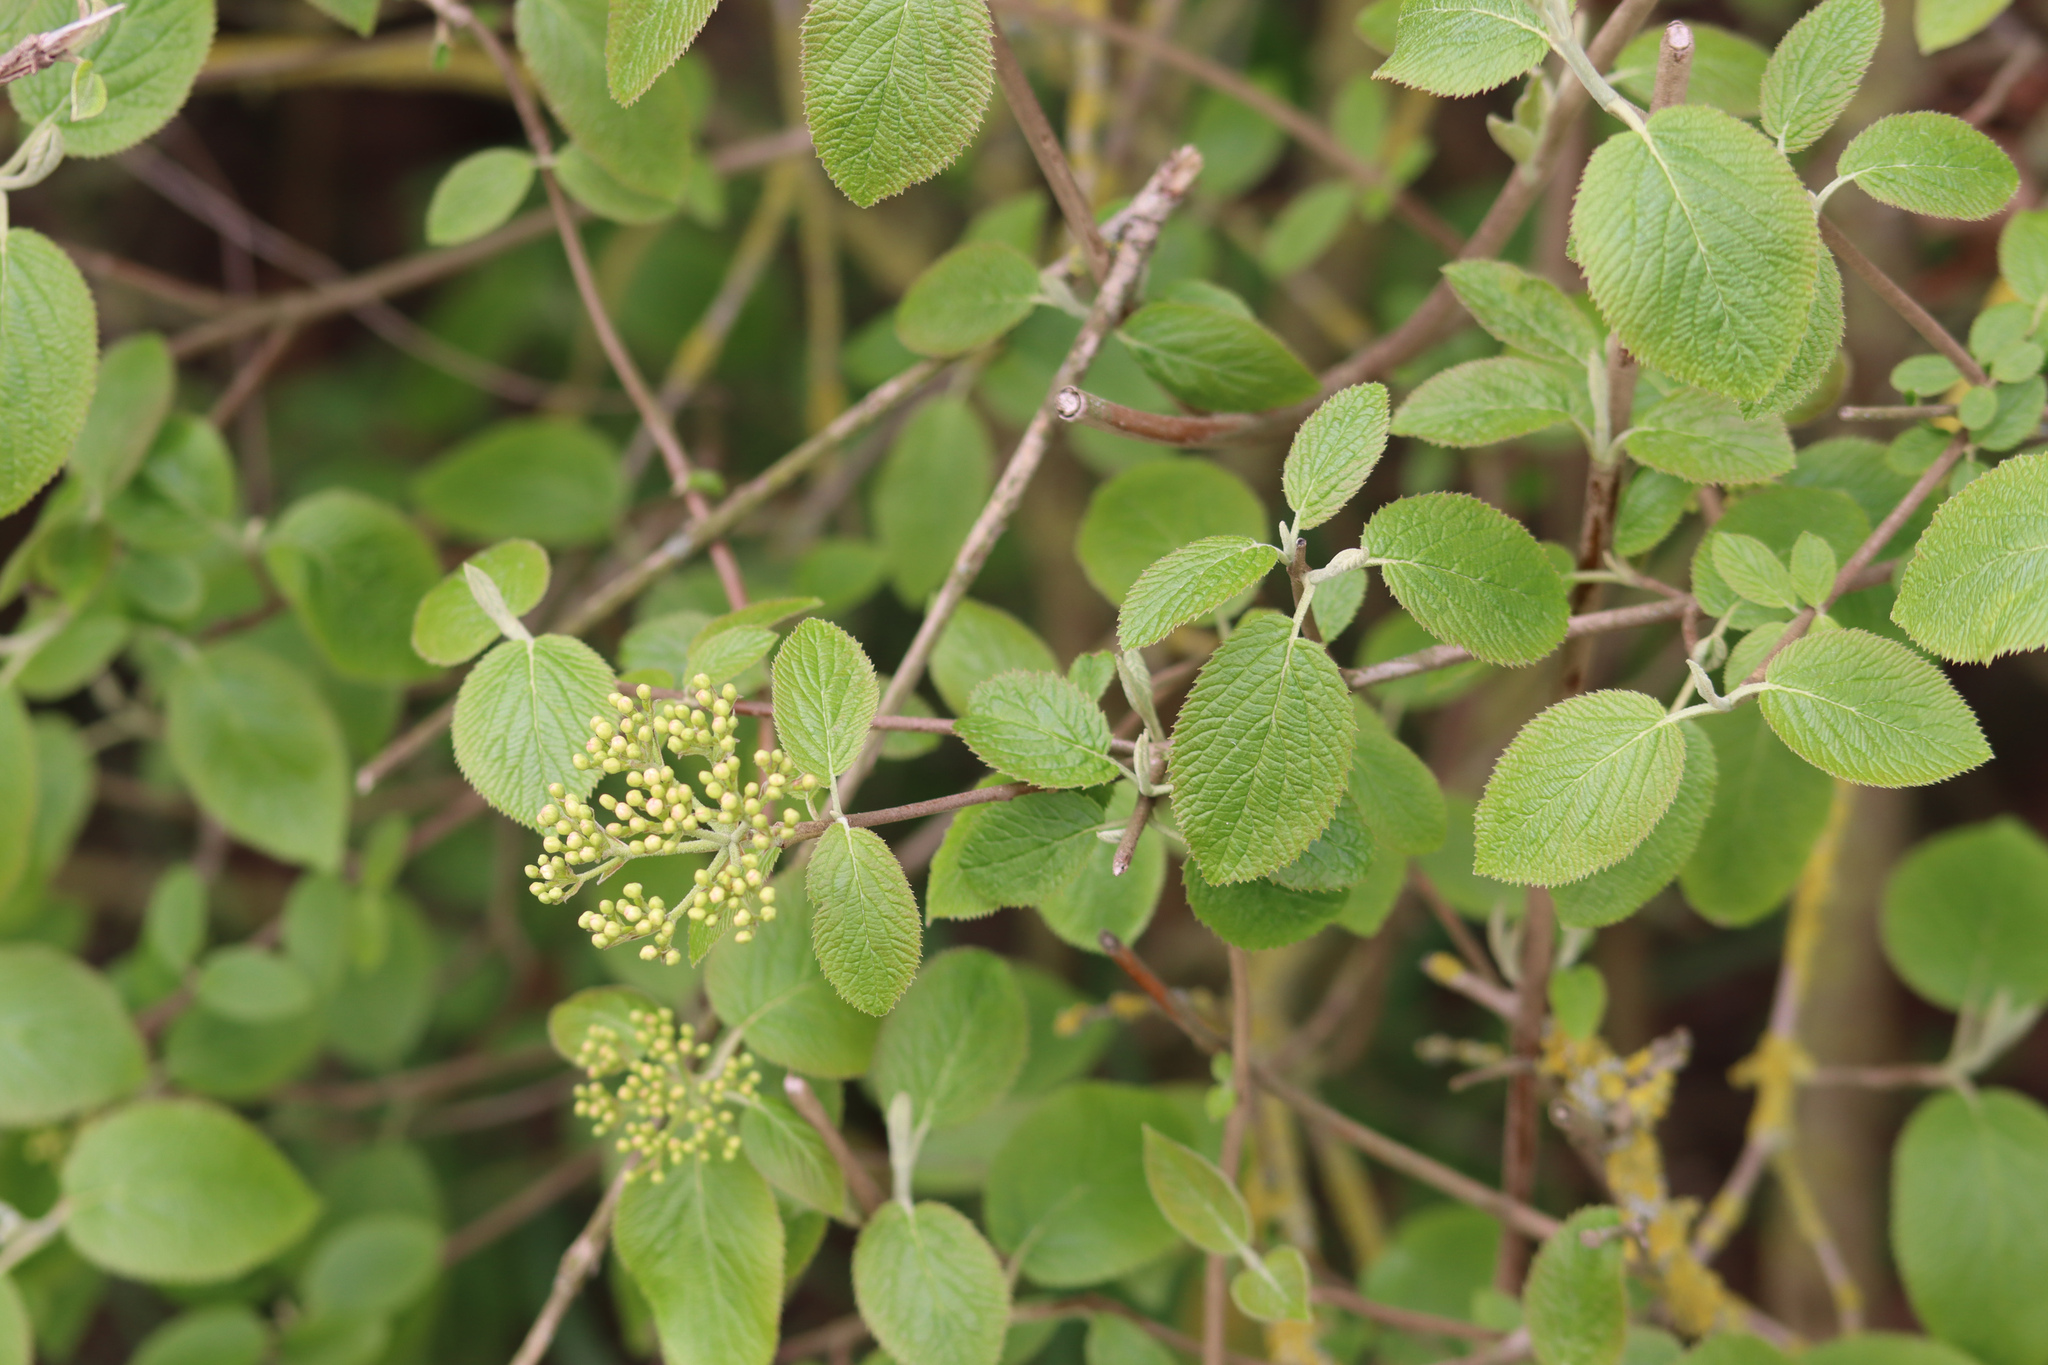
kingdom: Plantae
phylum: Tracheophyta
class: Magnoliopsida
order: Dipsacales
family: Viburnaceae
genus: Viburnum
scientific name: Viburnum lantana
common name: Wayfaring tree
